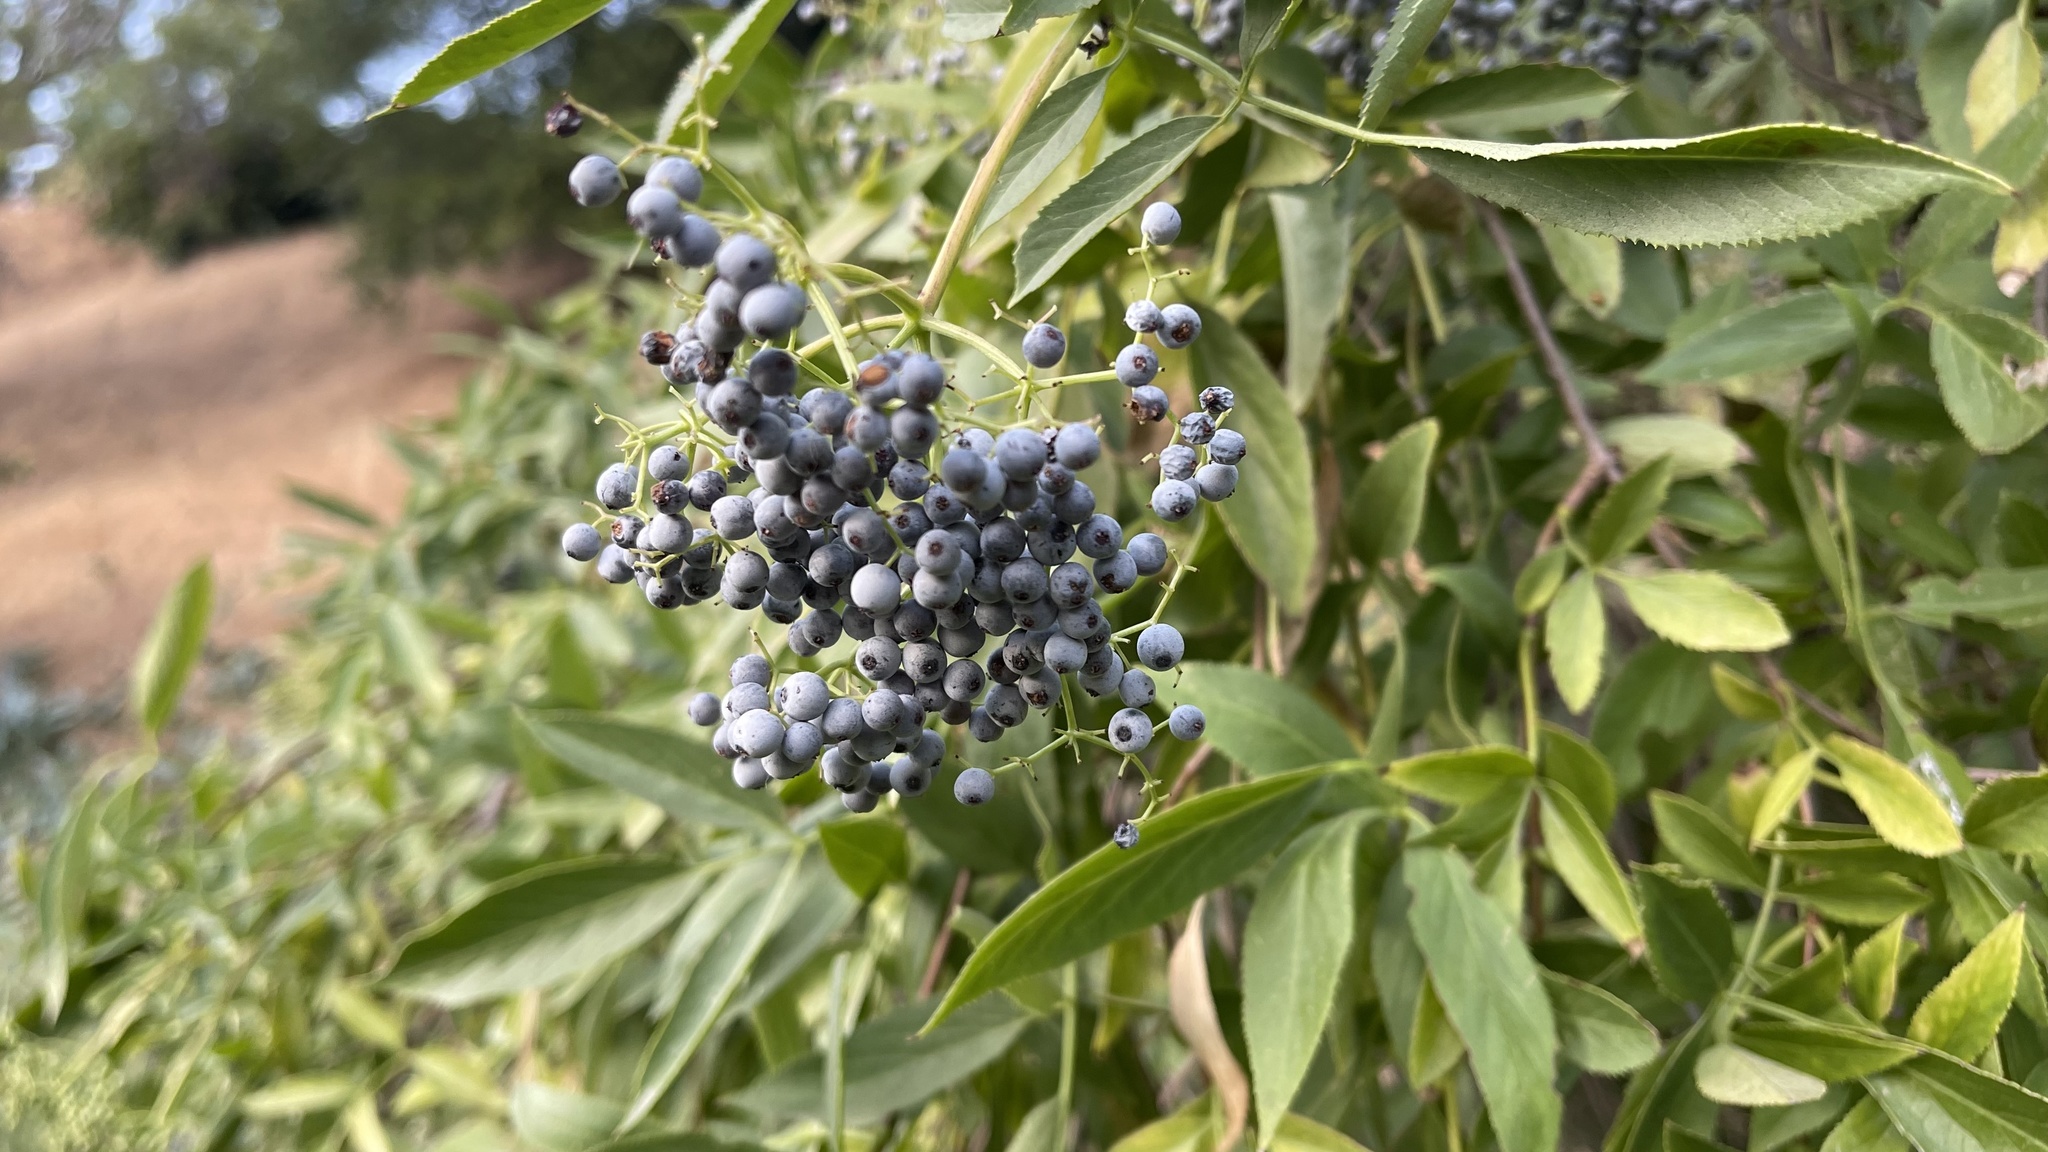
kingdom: Plantae
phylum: Tracheophyta
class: Magnoliopsida
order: Dipsacales
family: Viburnaceae
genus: Sambucus
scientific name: Sambucus cerulea
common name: Blue elder
